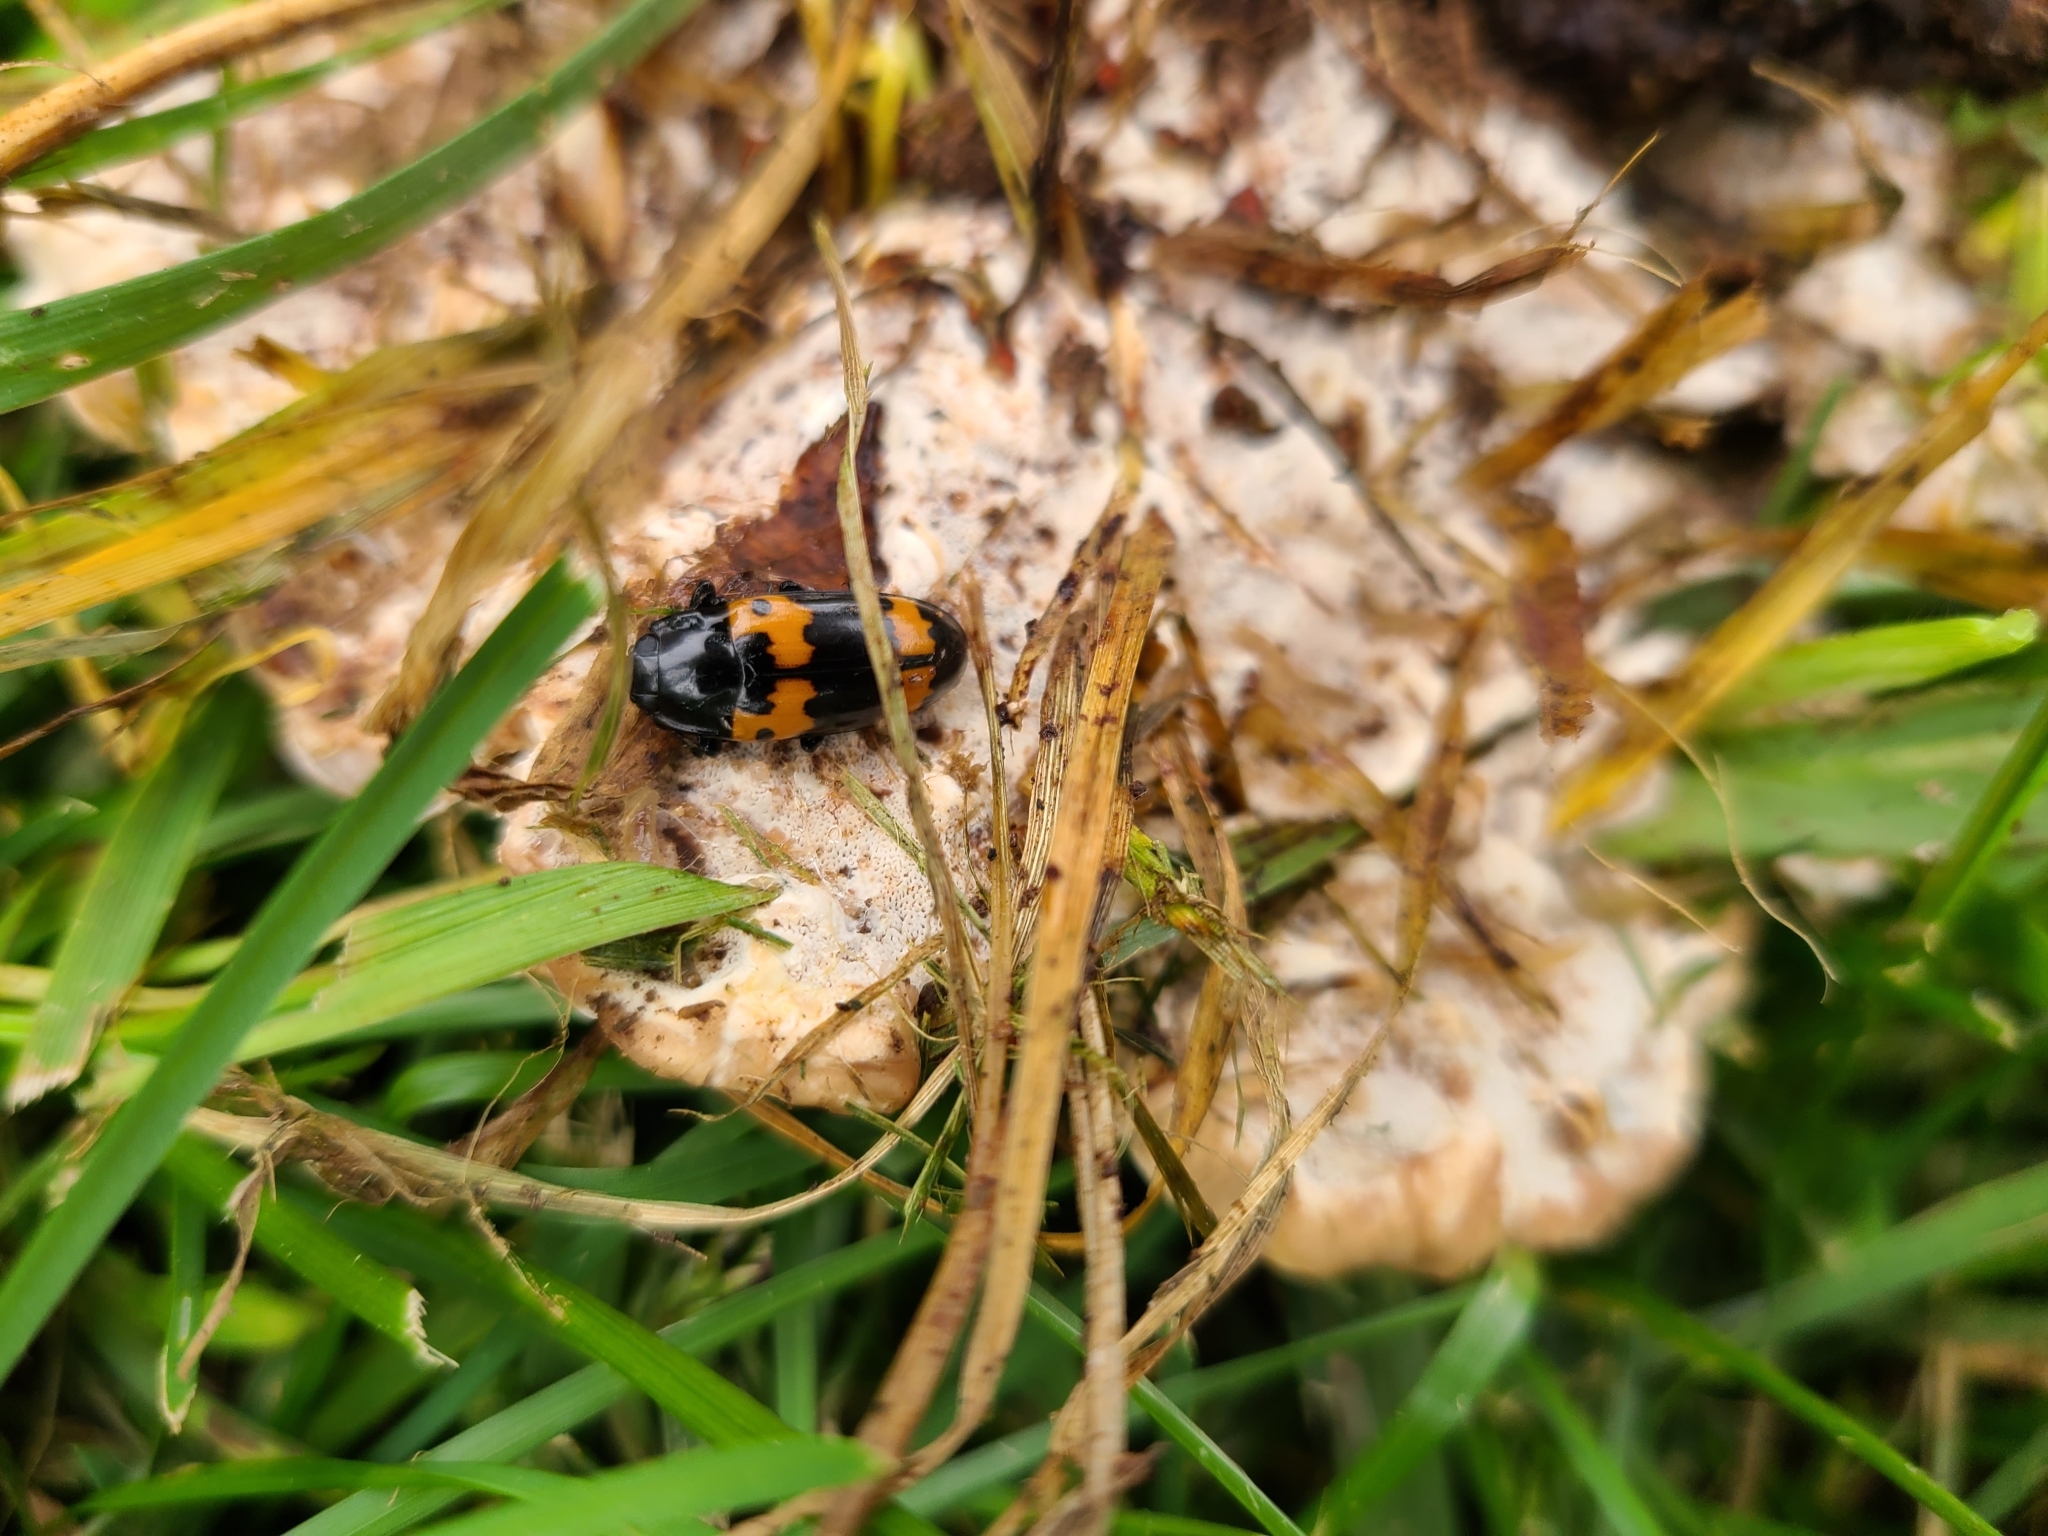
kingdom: Animalia
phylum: Arthropoda
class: Insecta
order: Coleoptera
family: Erotylidae
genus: Megalodacne
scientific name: Megalodacne fasciata
